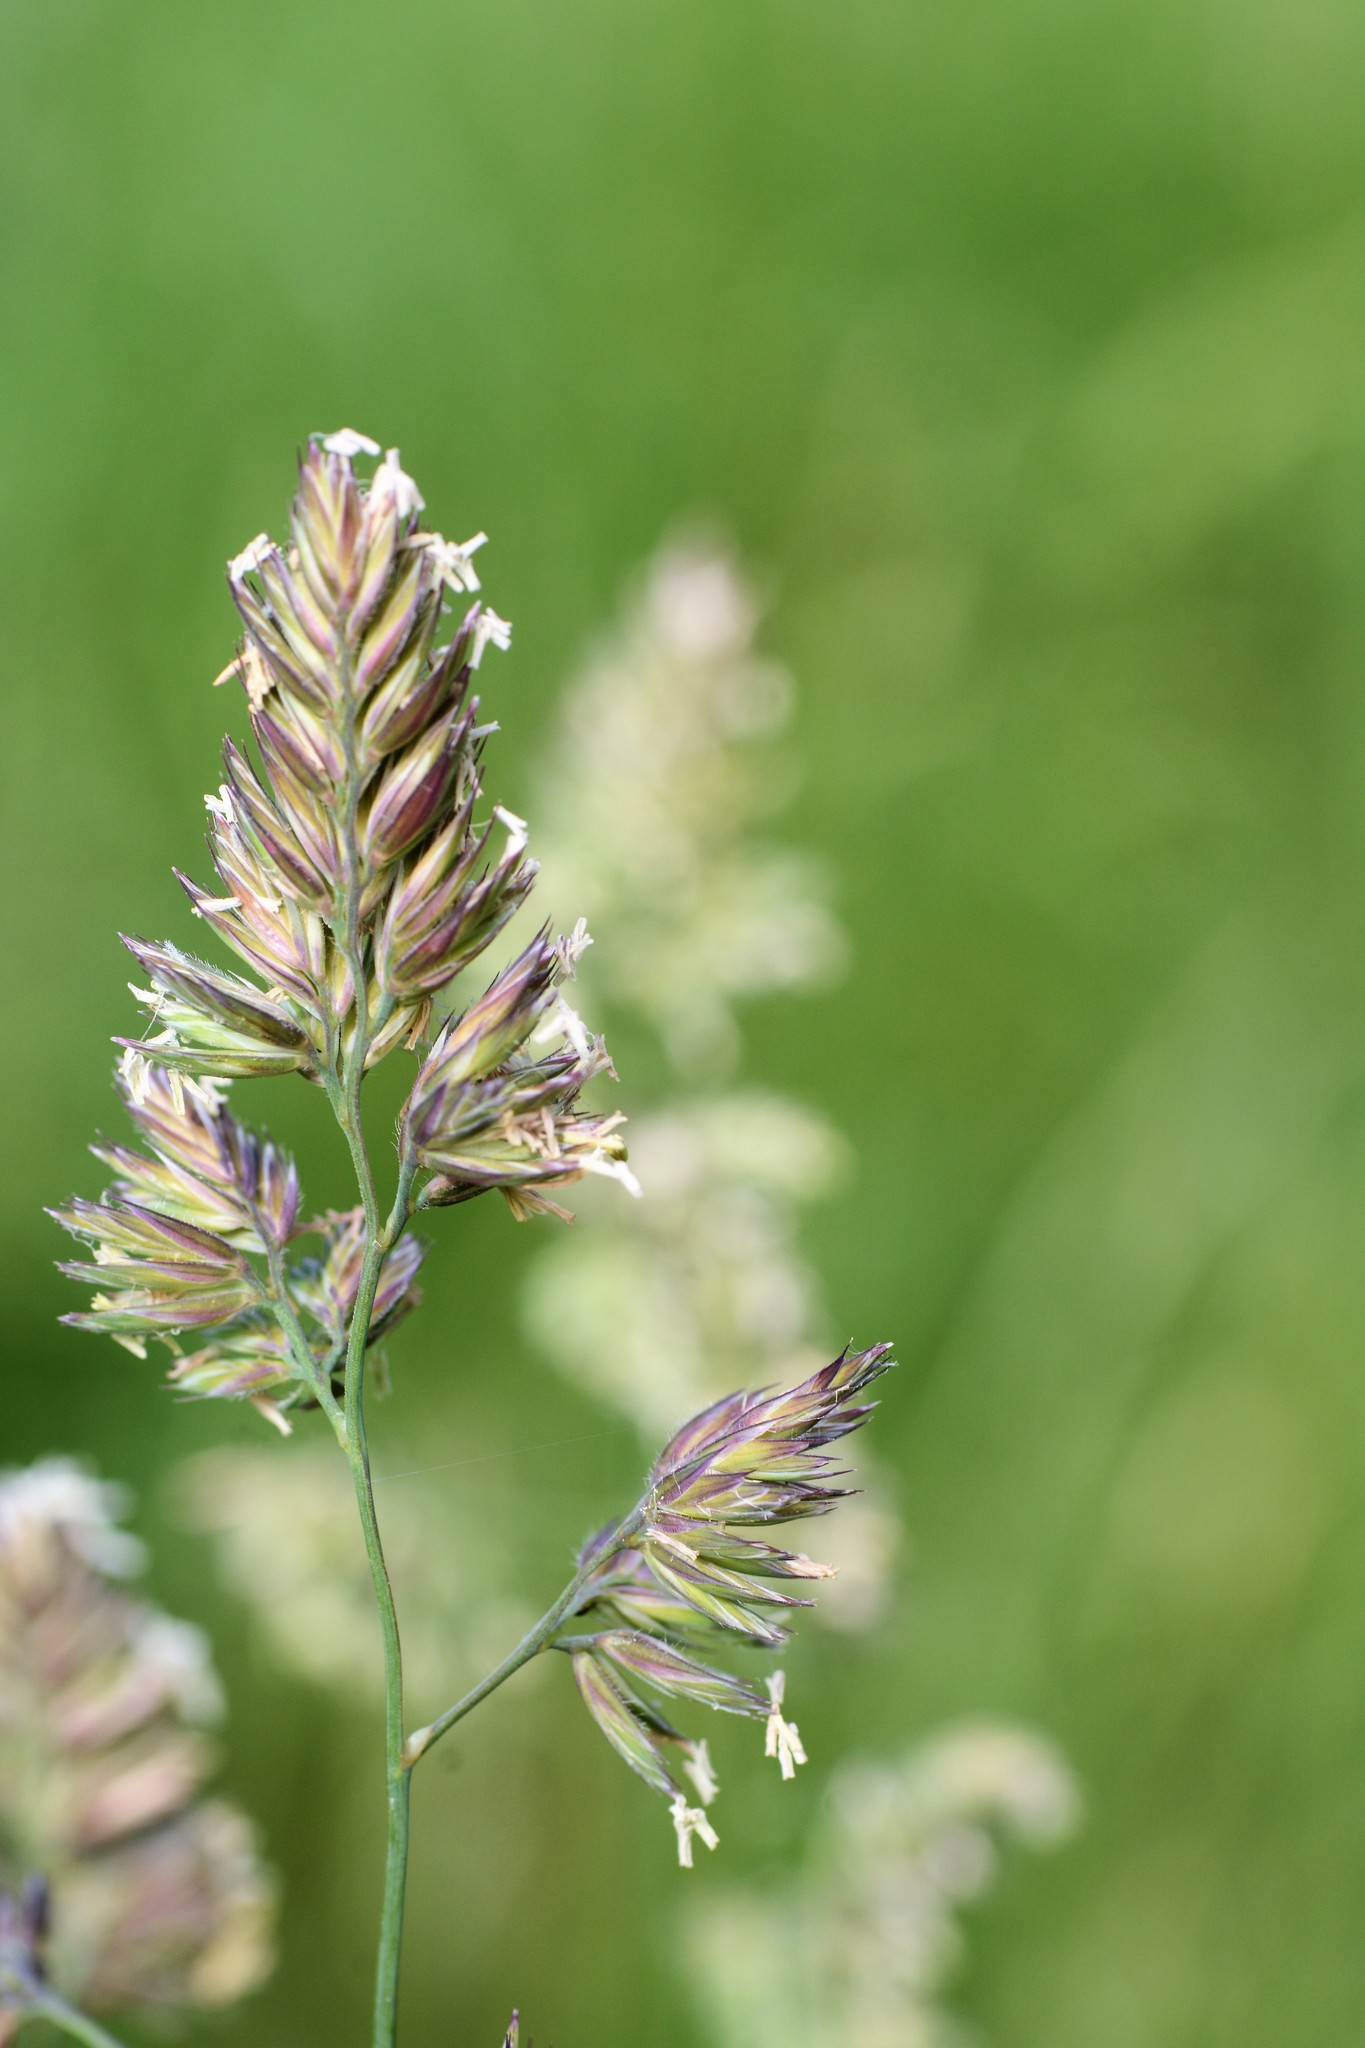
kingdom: Plantae
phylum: Tracheophyta
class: Liliopsida
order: Poales
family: Poaceae
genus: Dactylis
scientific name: Dactylis glomerata
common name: Orchardgrass
